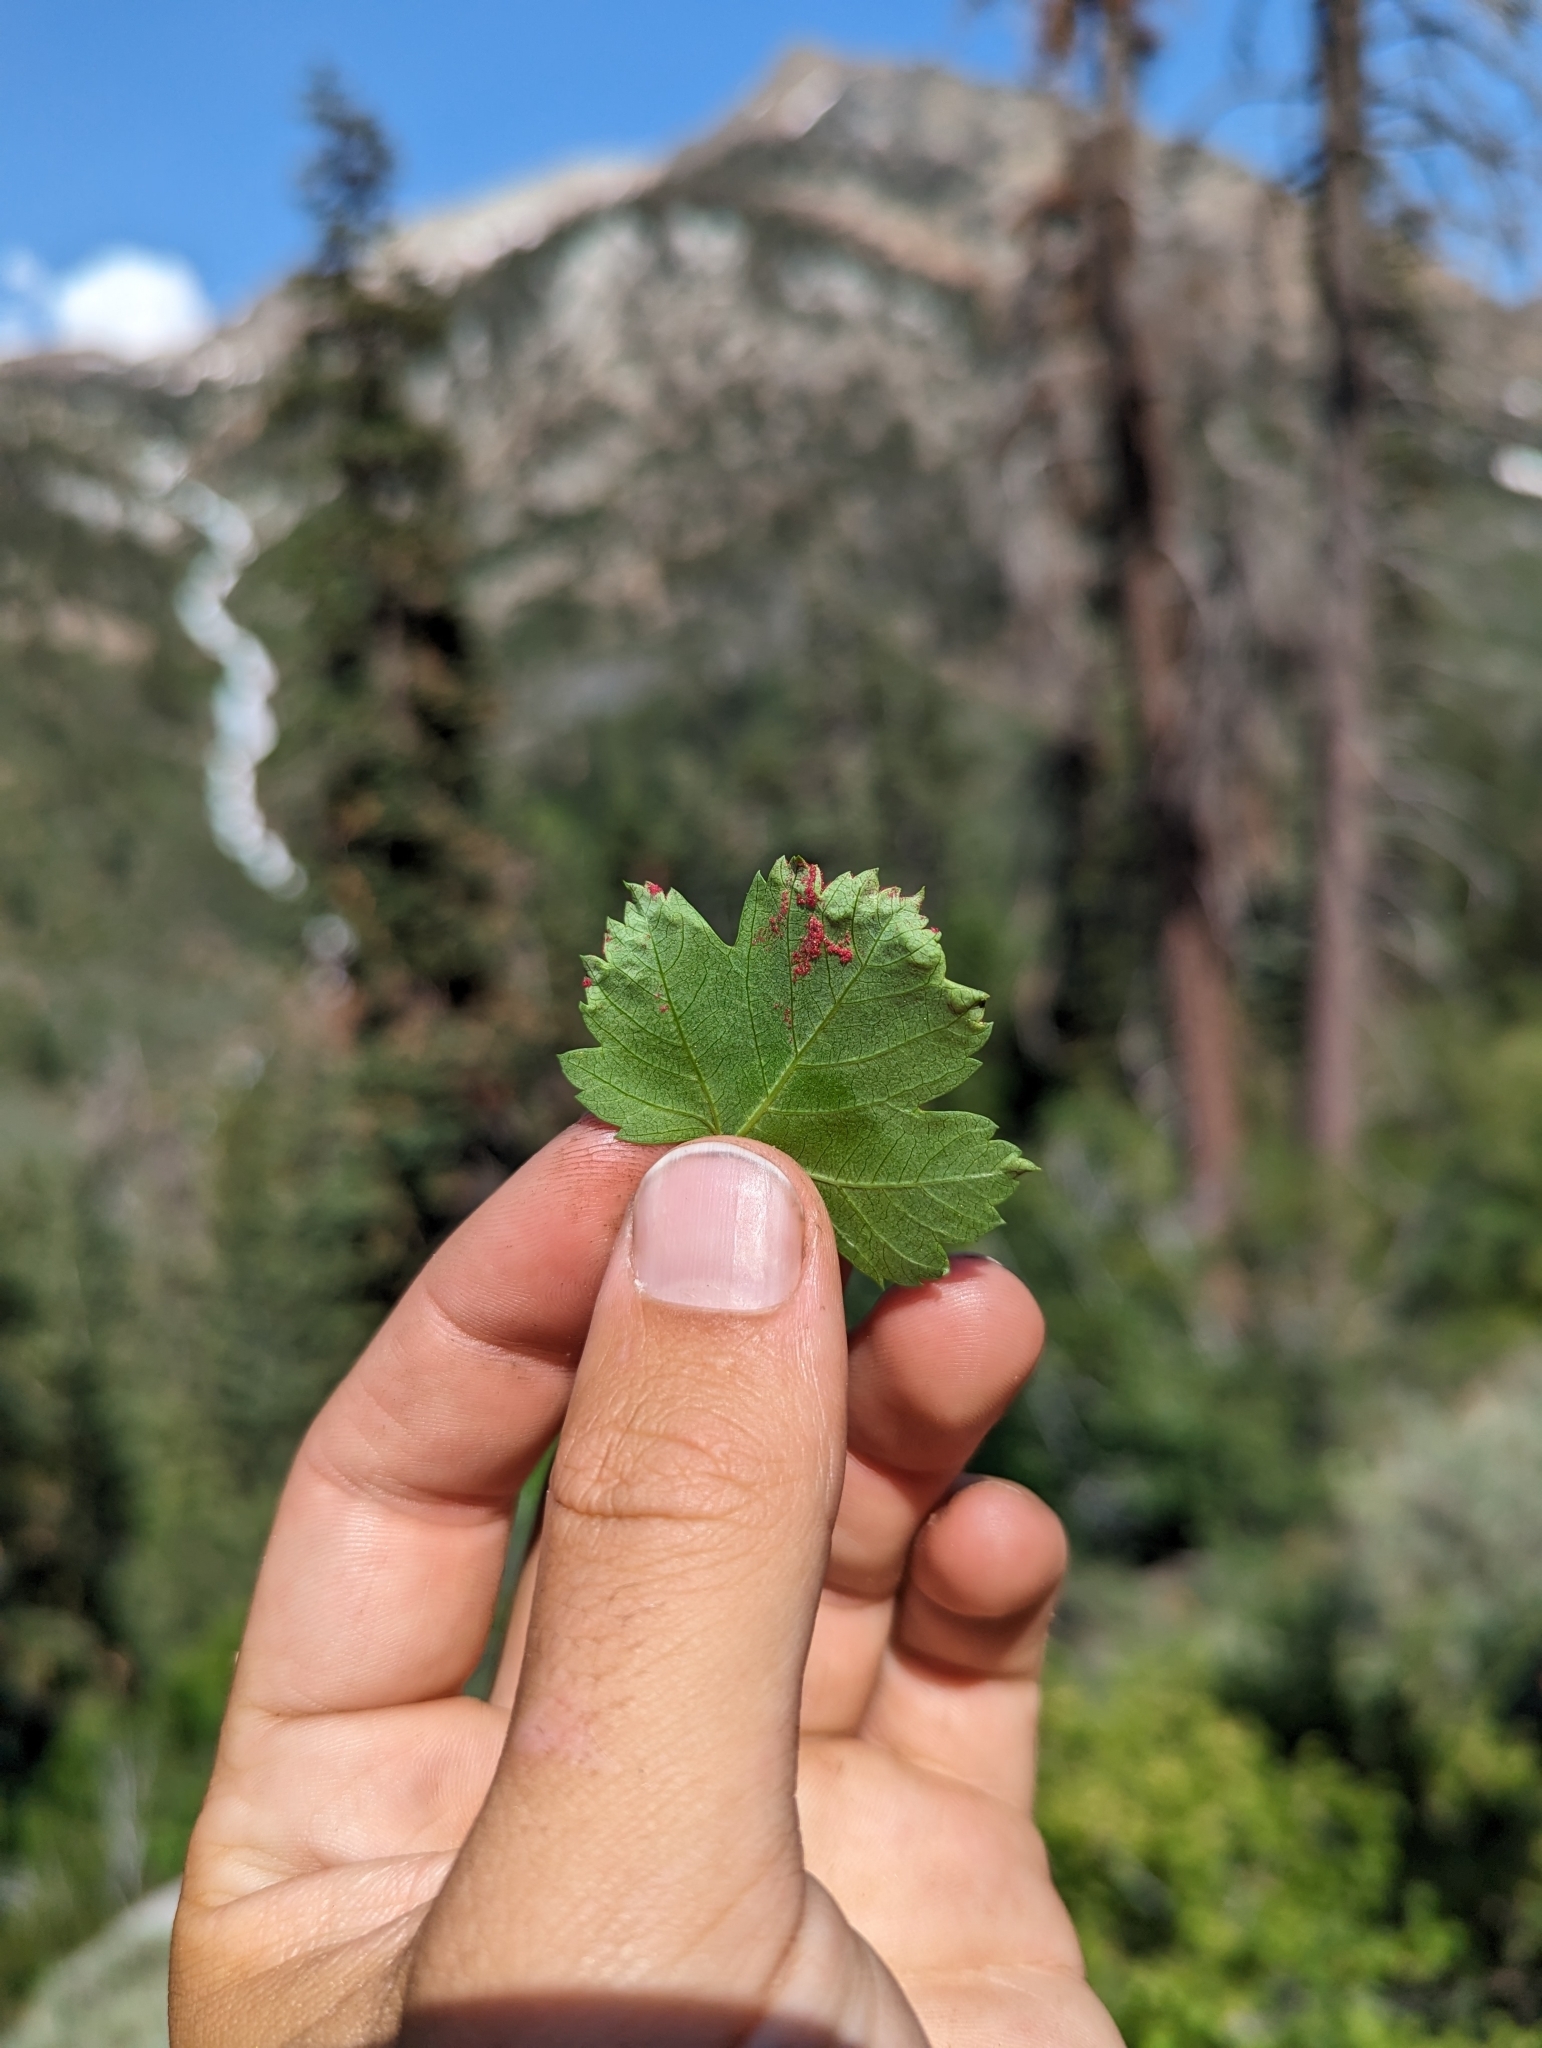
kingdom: Plantae
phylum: Tracheophyta
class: Magnoliopsida
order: Sapindales
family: Sapindaceae
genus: Acer
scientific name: Acer glabrum
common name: Rocky mountain maple
